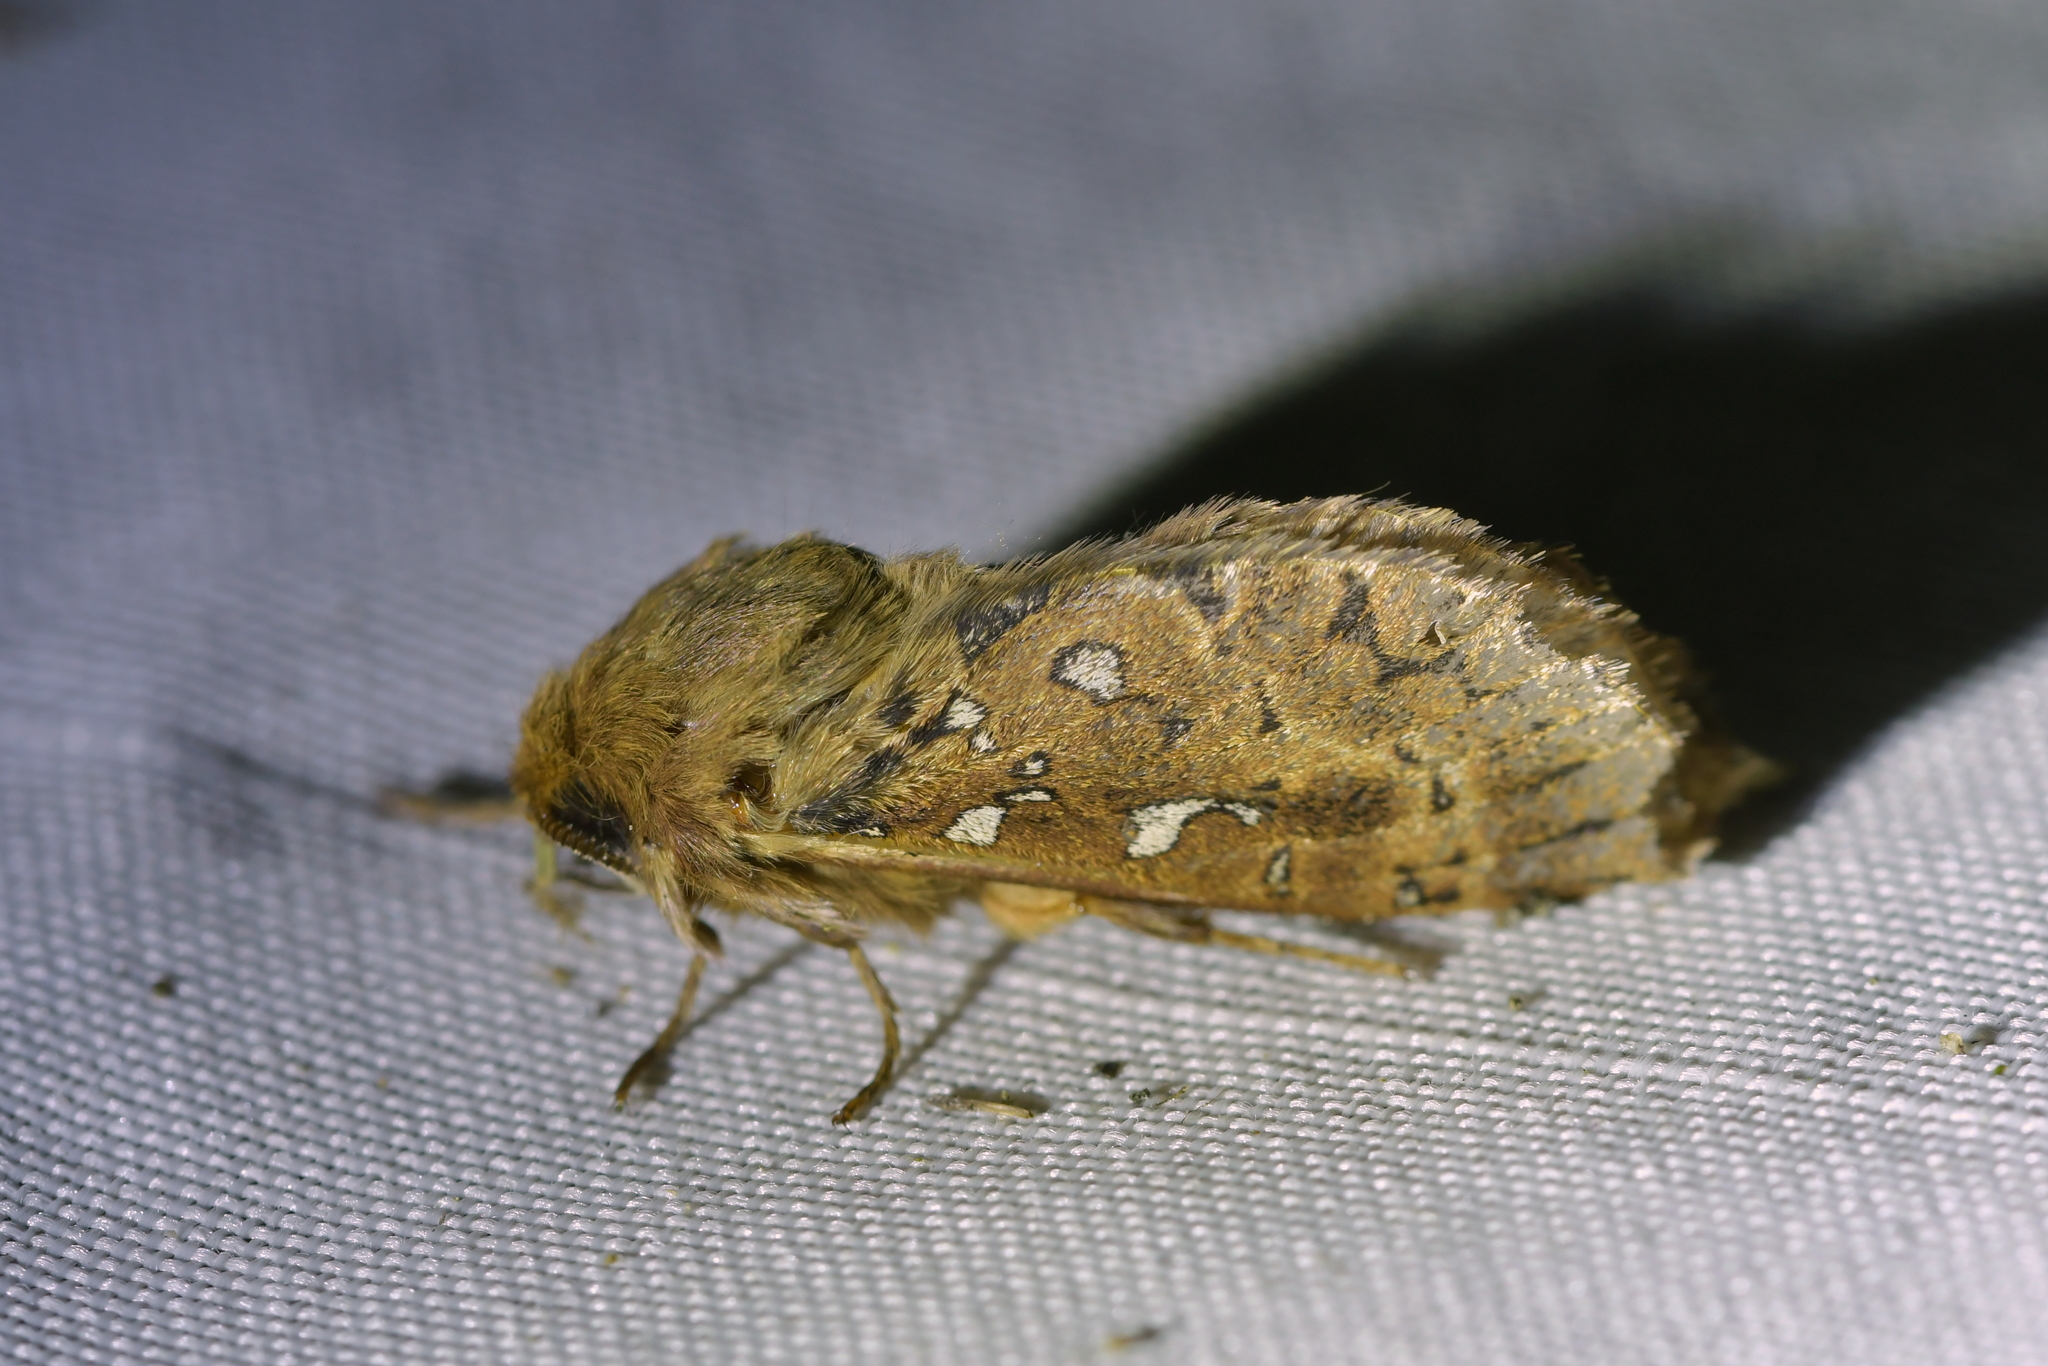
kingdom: Animalia
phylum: Arthropoda
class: Insecta
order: Lepidoptera
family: Hepialidae
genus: Wiseana
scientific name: Wiseana cervinata
